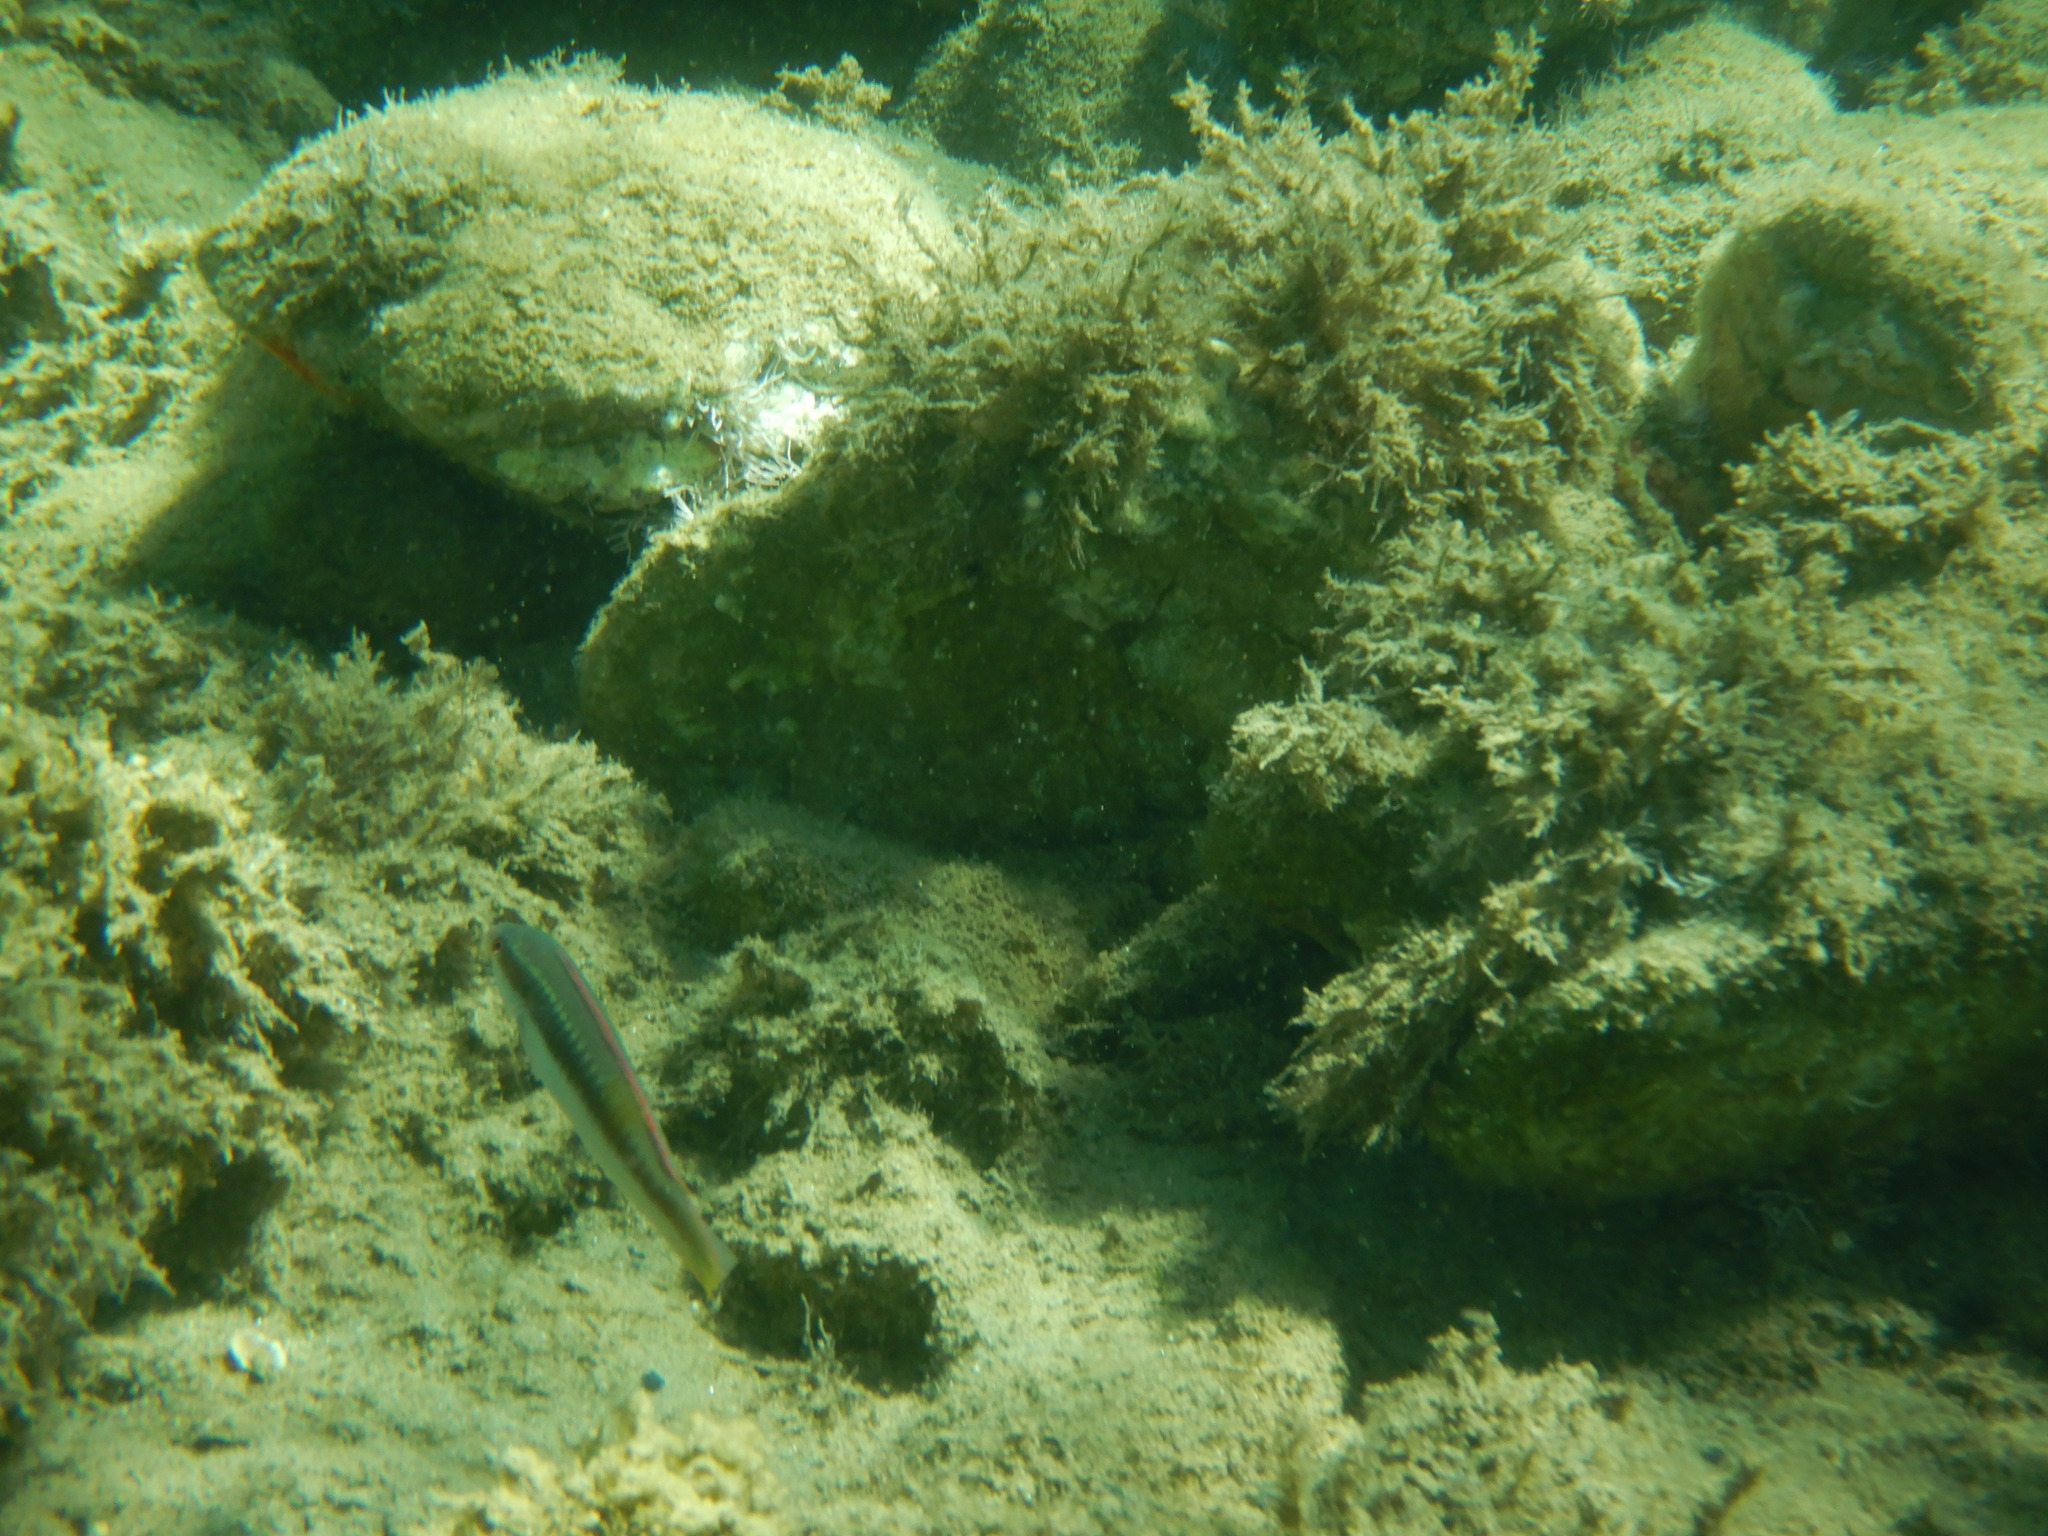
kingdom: Animalia
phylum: Chordata
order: Perciformes
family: Labridae
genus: Coris
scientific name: Coris julis
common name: Rainbow wrasse
